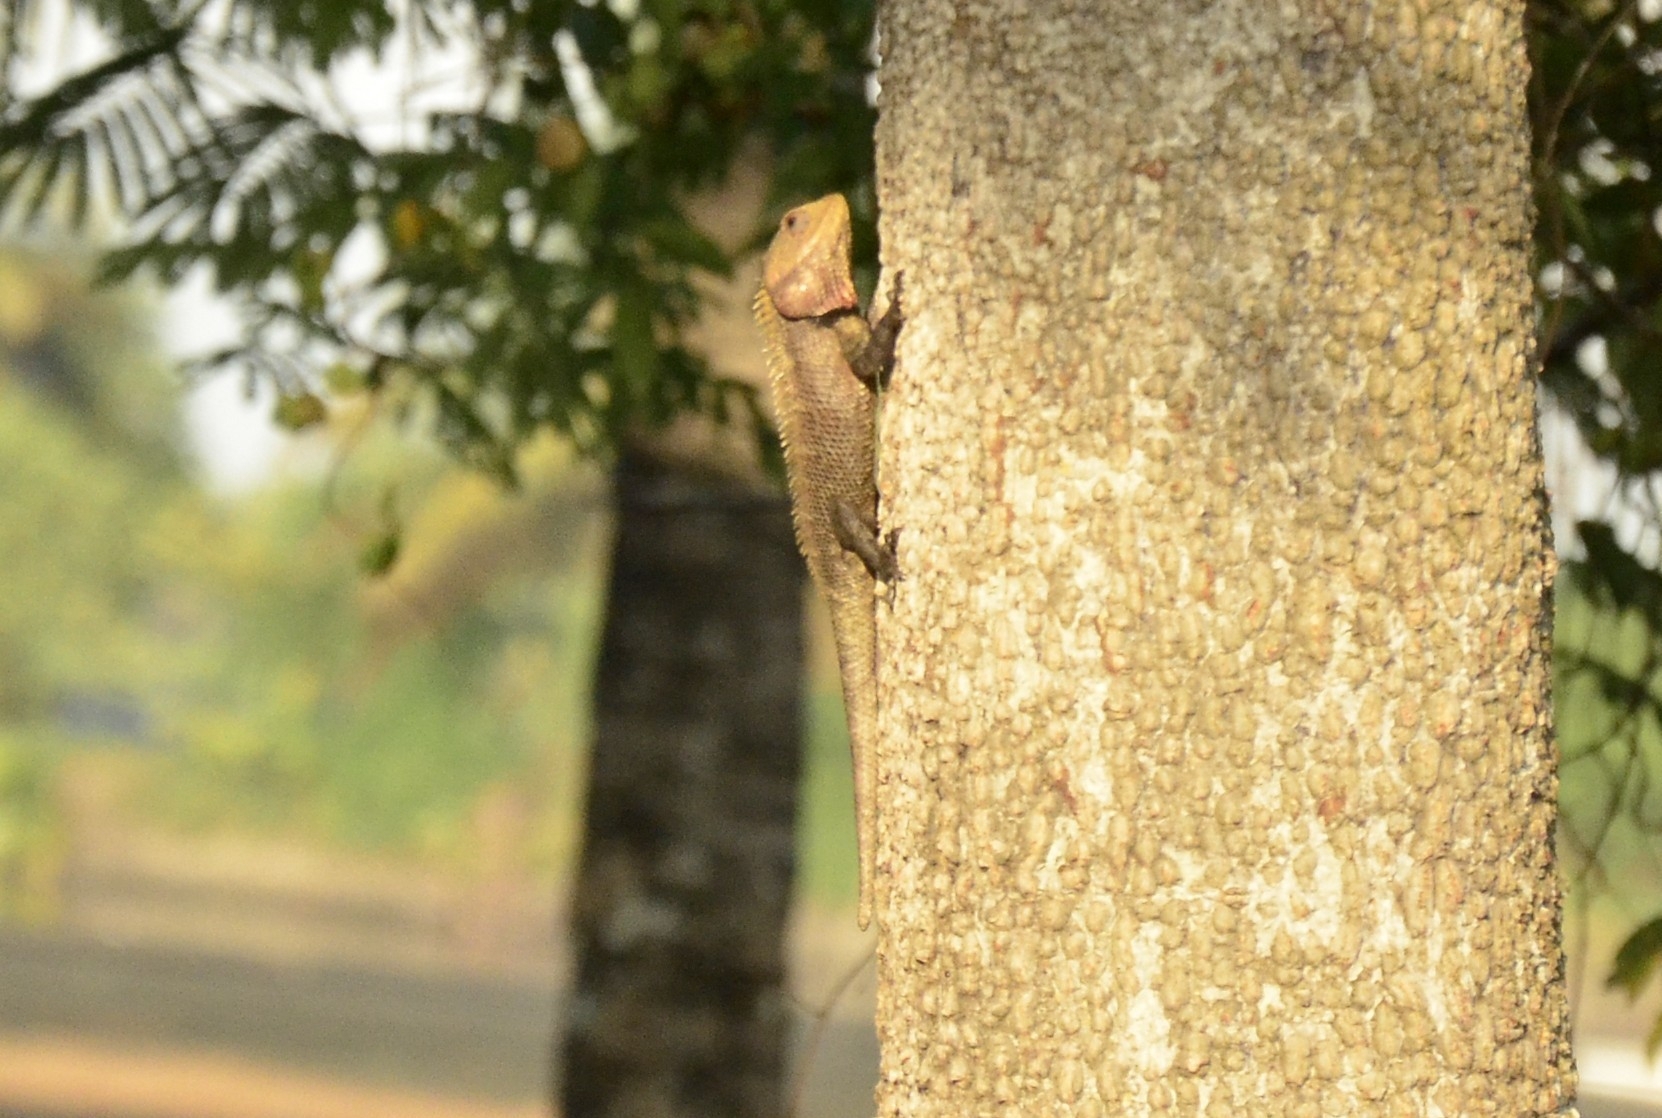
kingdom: Animalia
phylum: Chordata
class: Squamata
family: Agamidae
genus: Calotes
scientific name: Calotes versicolor
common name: Oriental garden lizard
